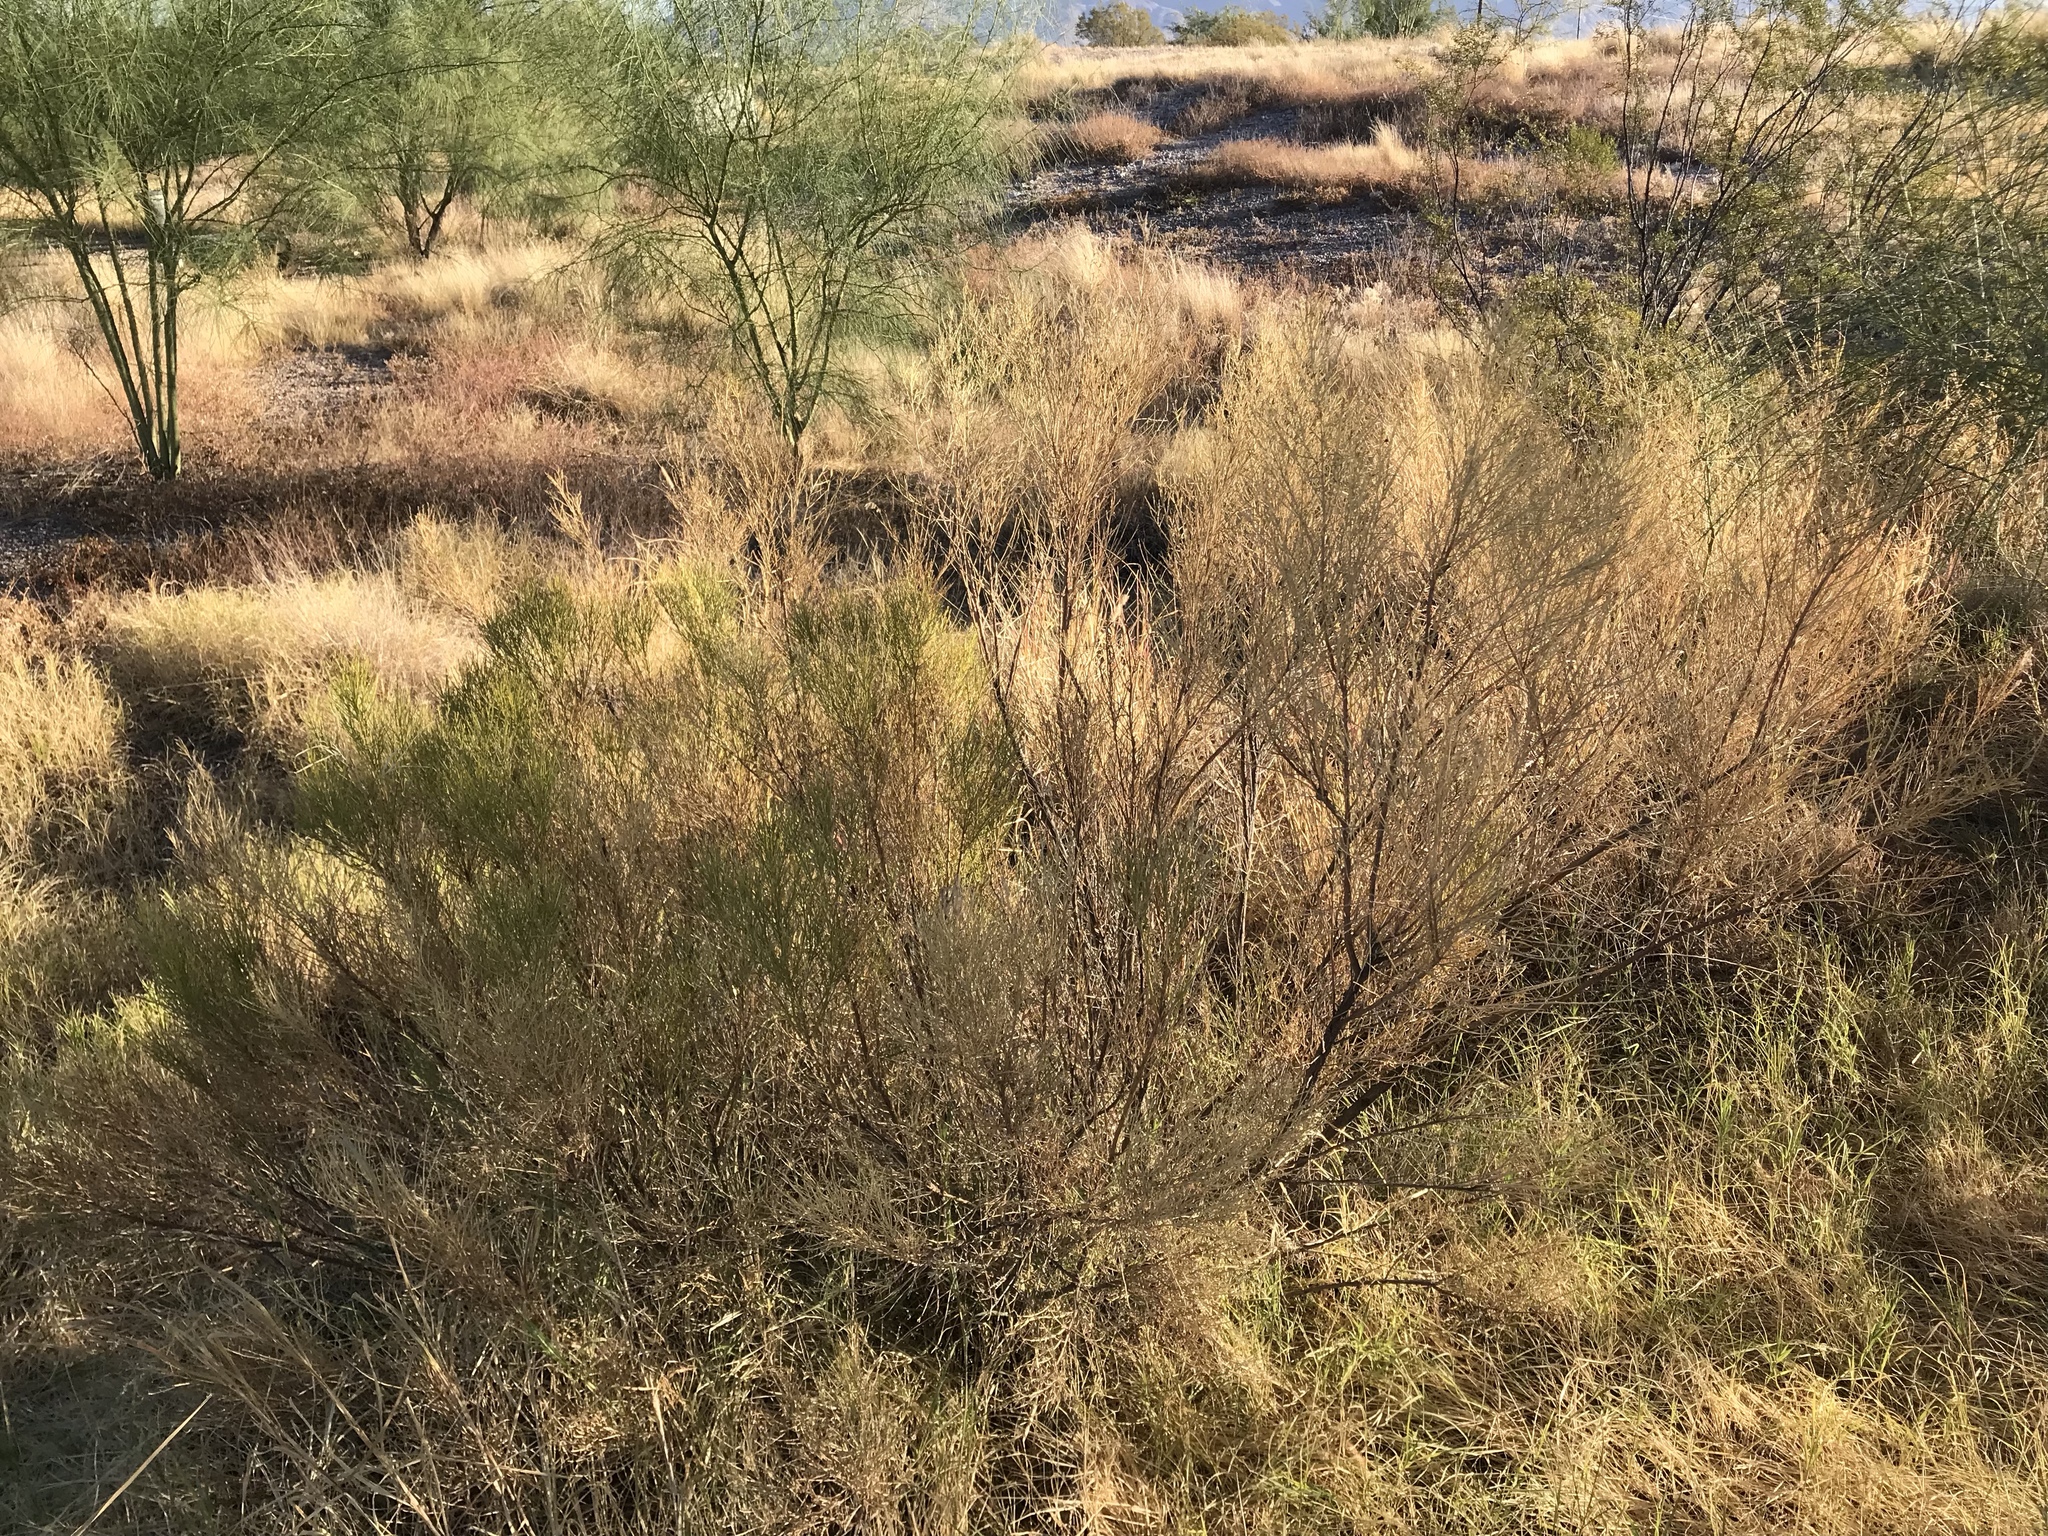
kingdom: Plantae
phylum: Tracheophyta
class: Magnoliopsida
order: Asterales
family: Asteraceae
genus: Baccharis
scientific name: Baccharis sarothroides
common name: Desert-broom
